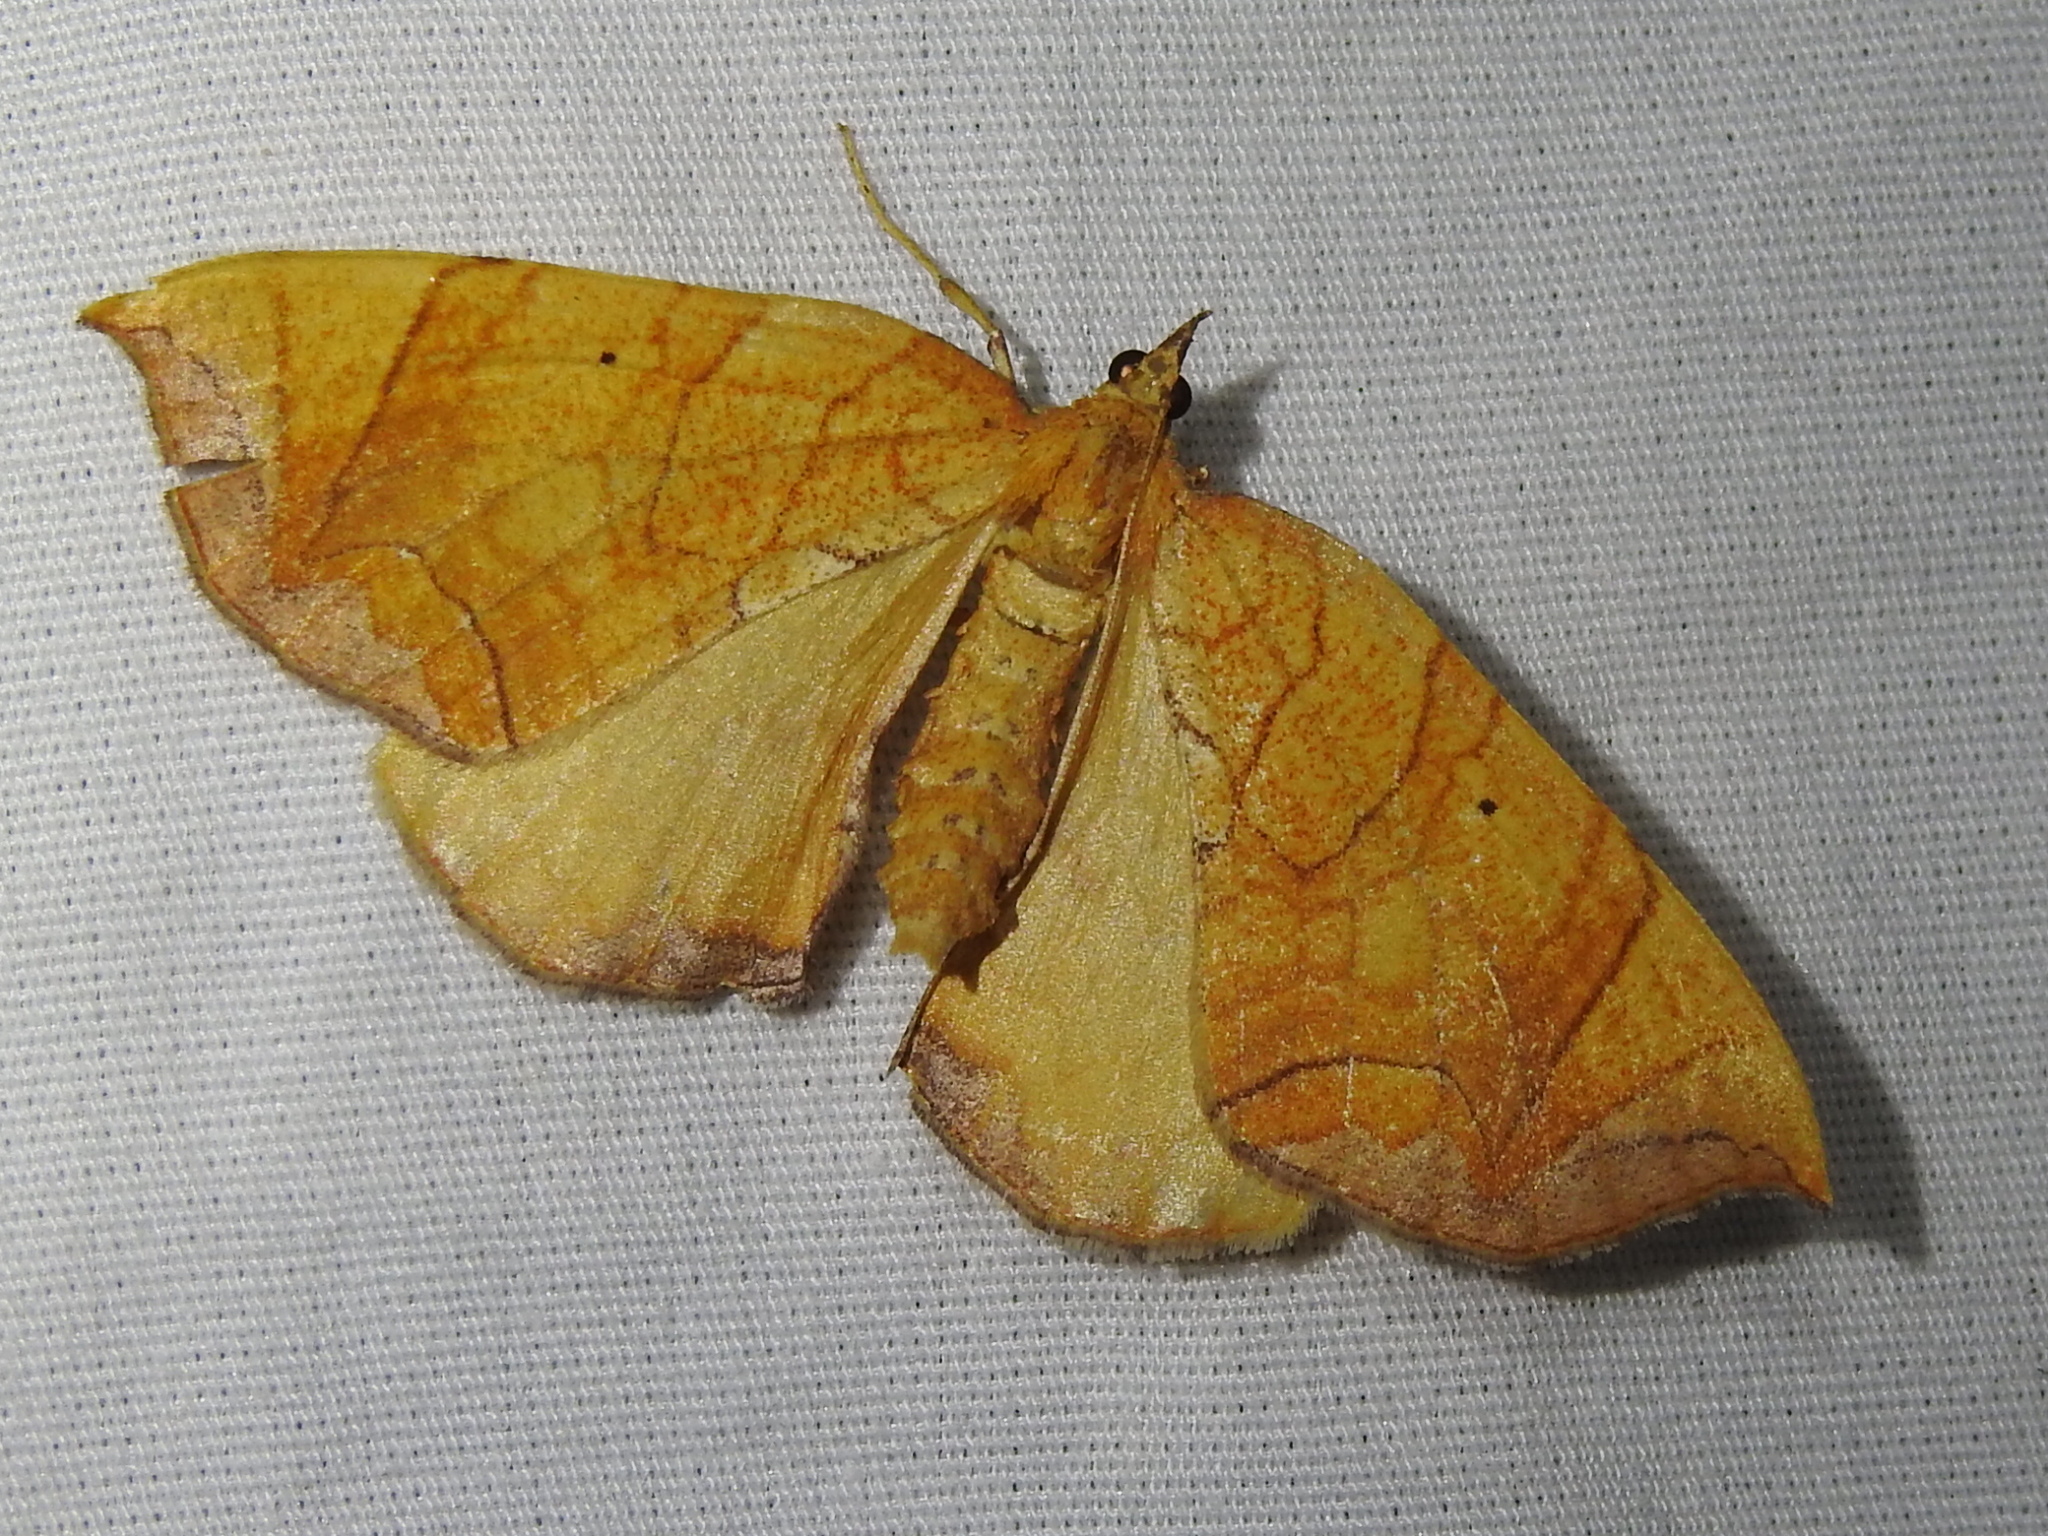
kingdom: Animalia
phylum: Arthropoda
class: Insecta
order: Lepidoptera
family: Geometridae
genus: Eulithis
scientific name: Eulithis
